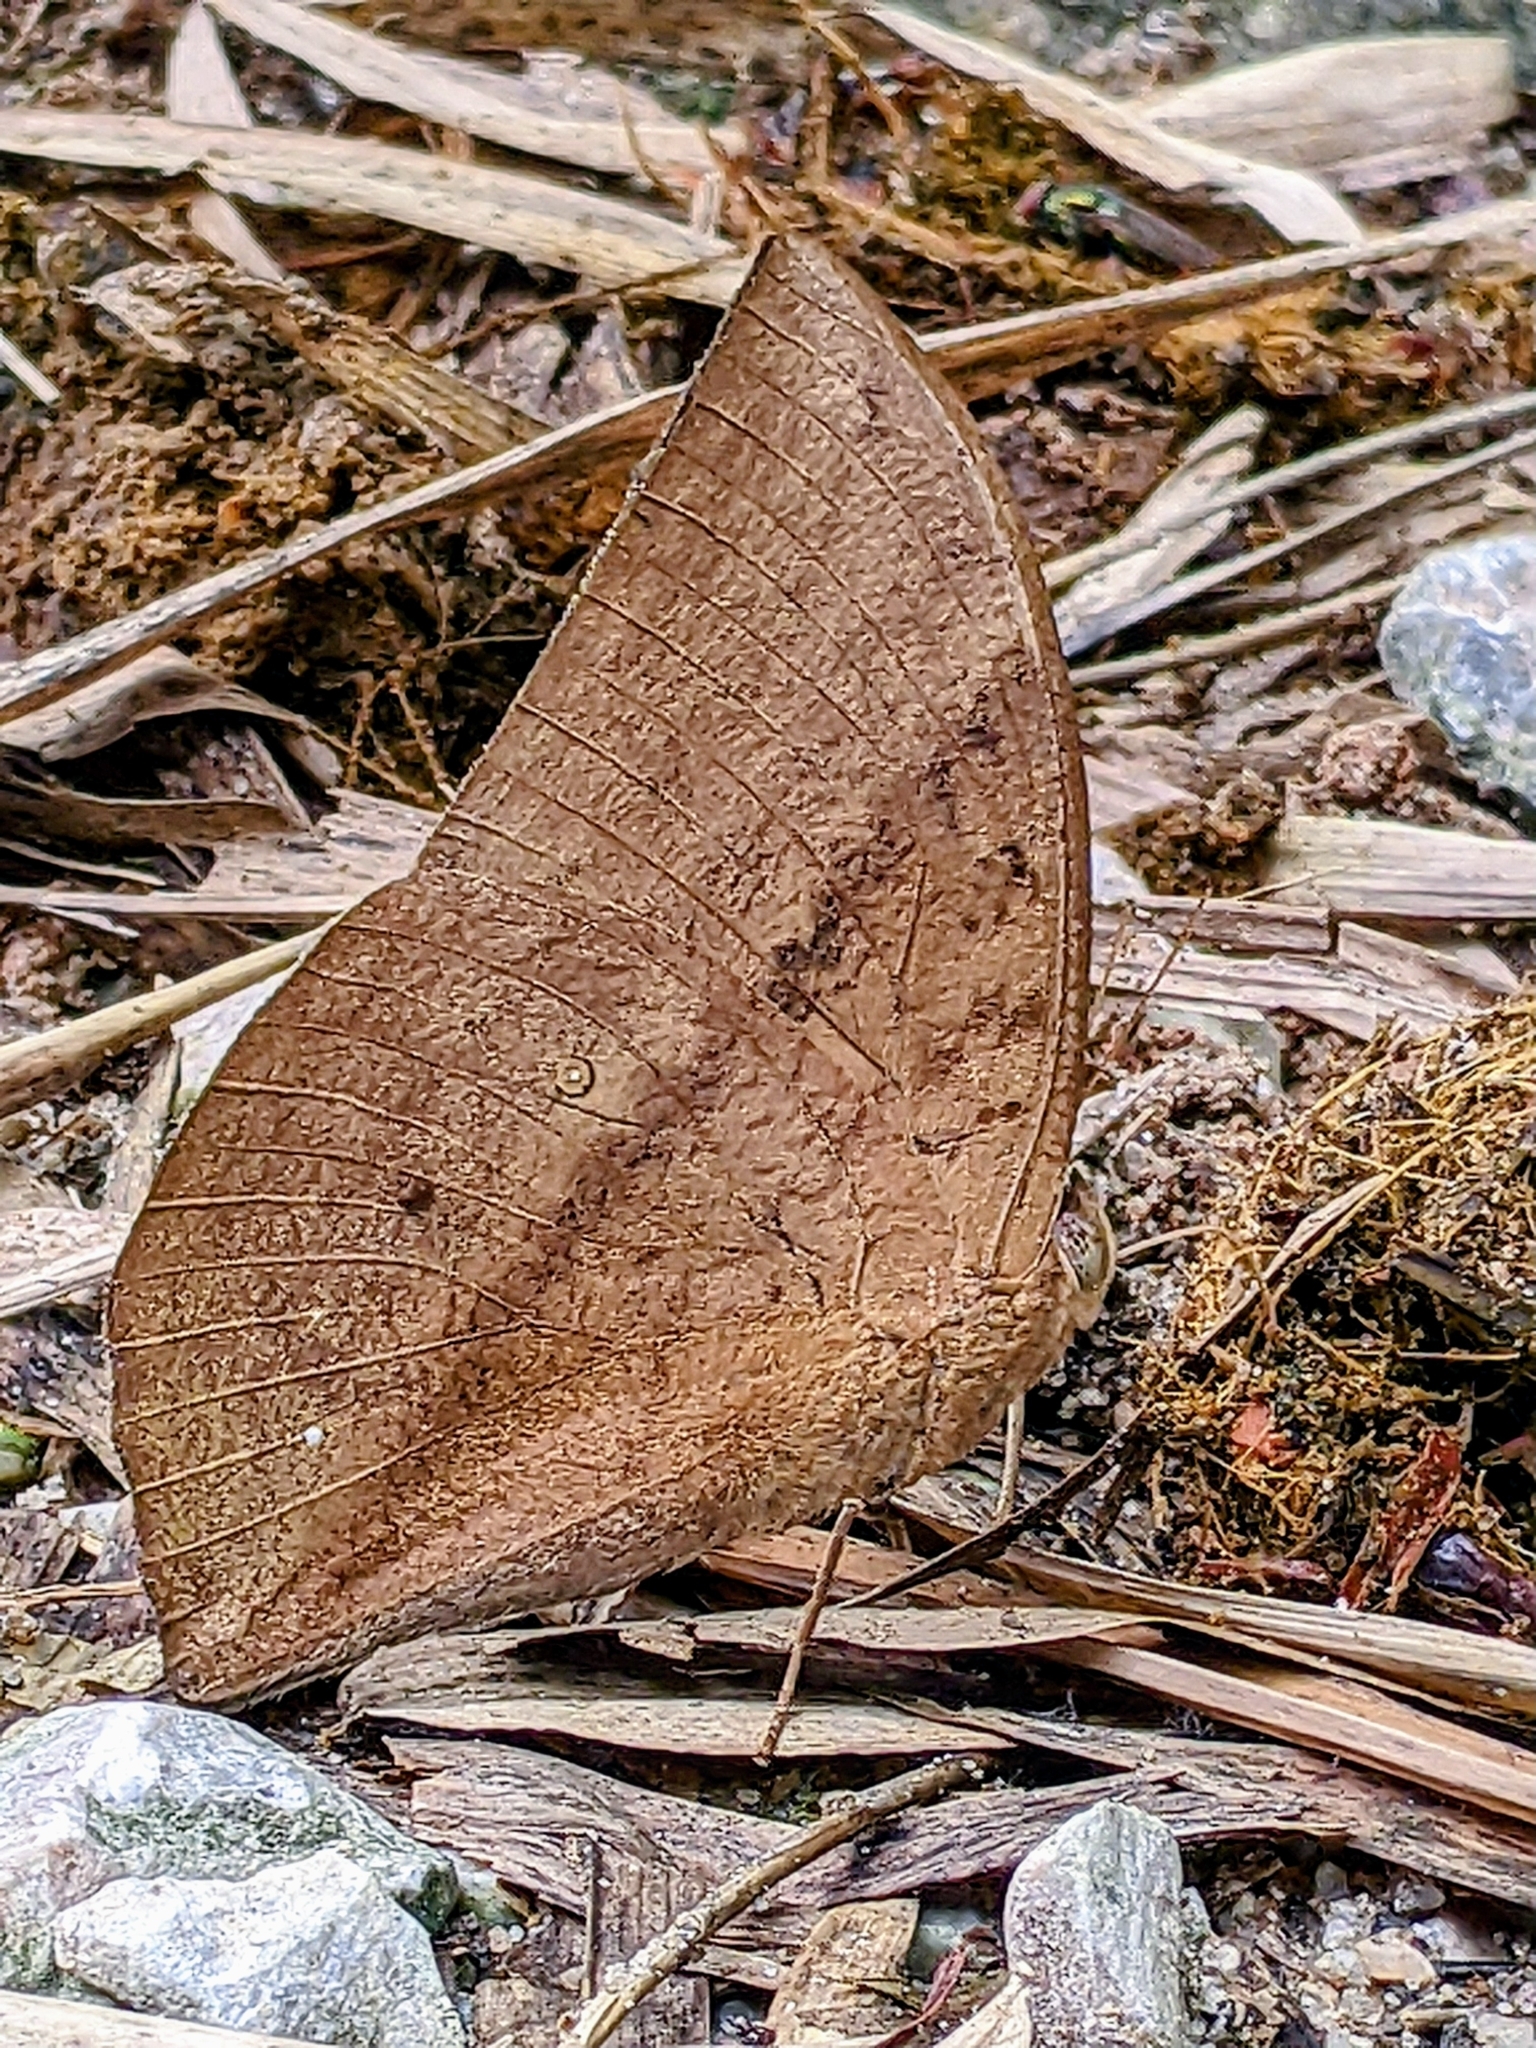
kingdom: Animalia
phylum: Arthropoda
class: Insecta
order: Lepidoptera
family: Nymphalidae
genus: Discophora
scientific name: Discophora sondaica
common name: Common duffer
